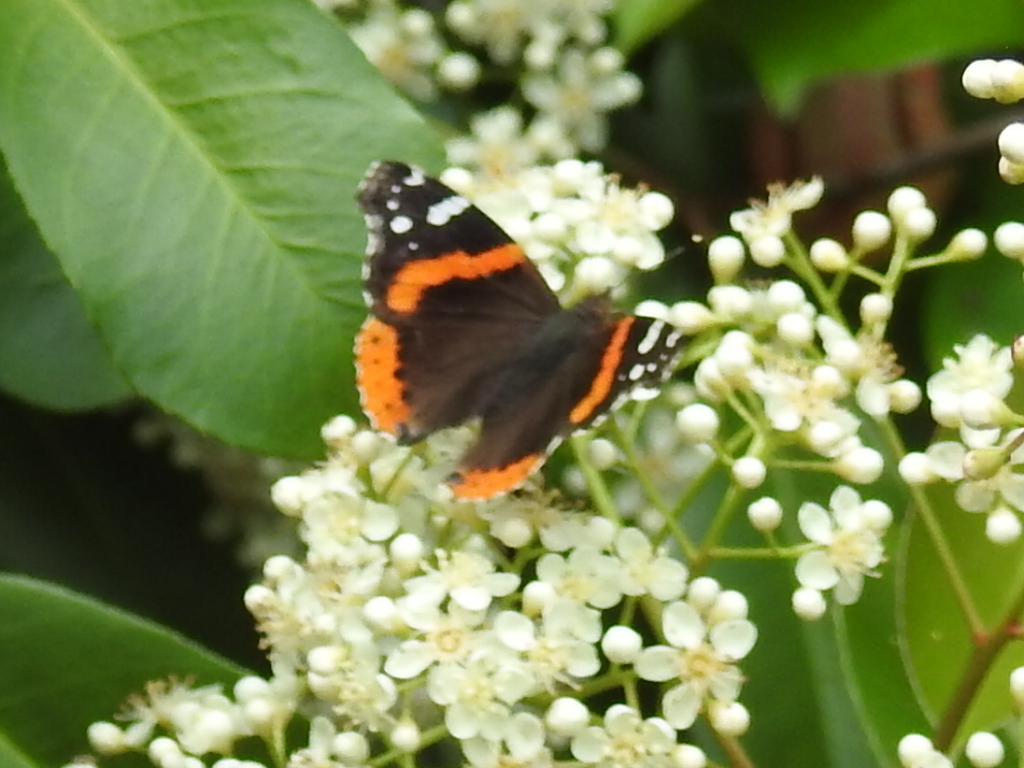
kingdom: Animalia
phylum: Arthropoda
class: Insecta
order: Lepidoptera
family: Nymphalidae
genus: Vanessa
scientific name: Vanessa atalanta
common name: Red admiral
